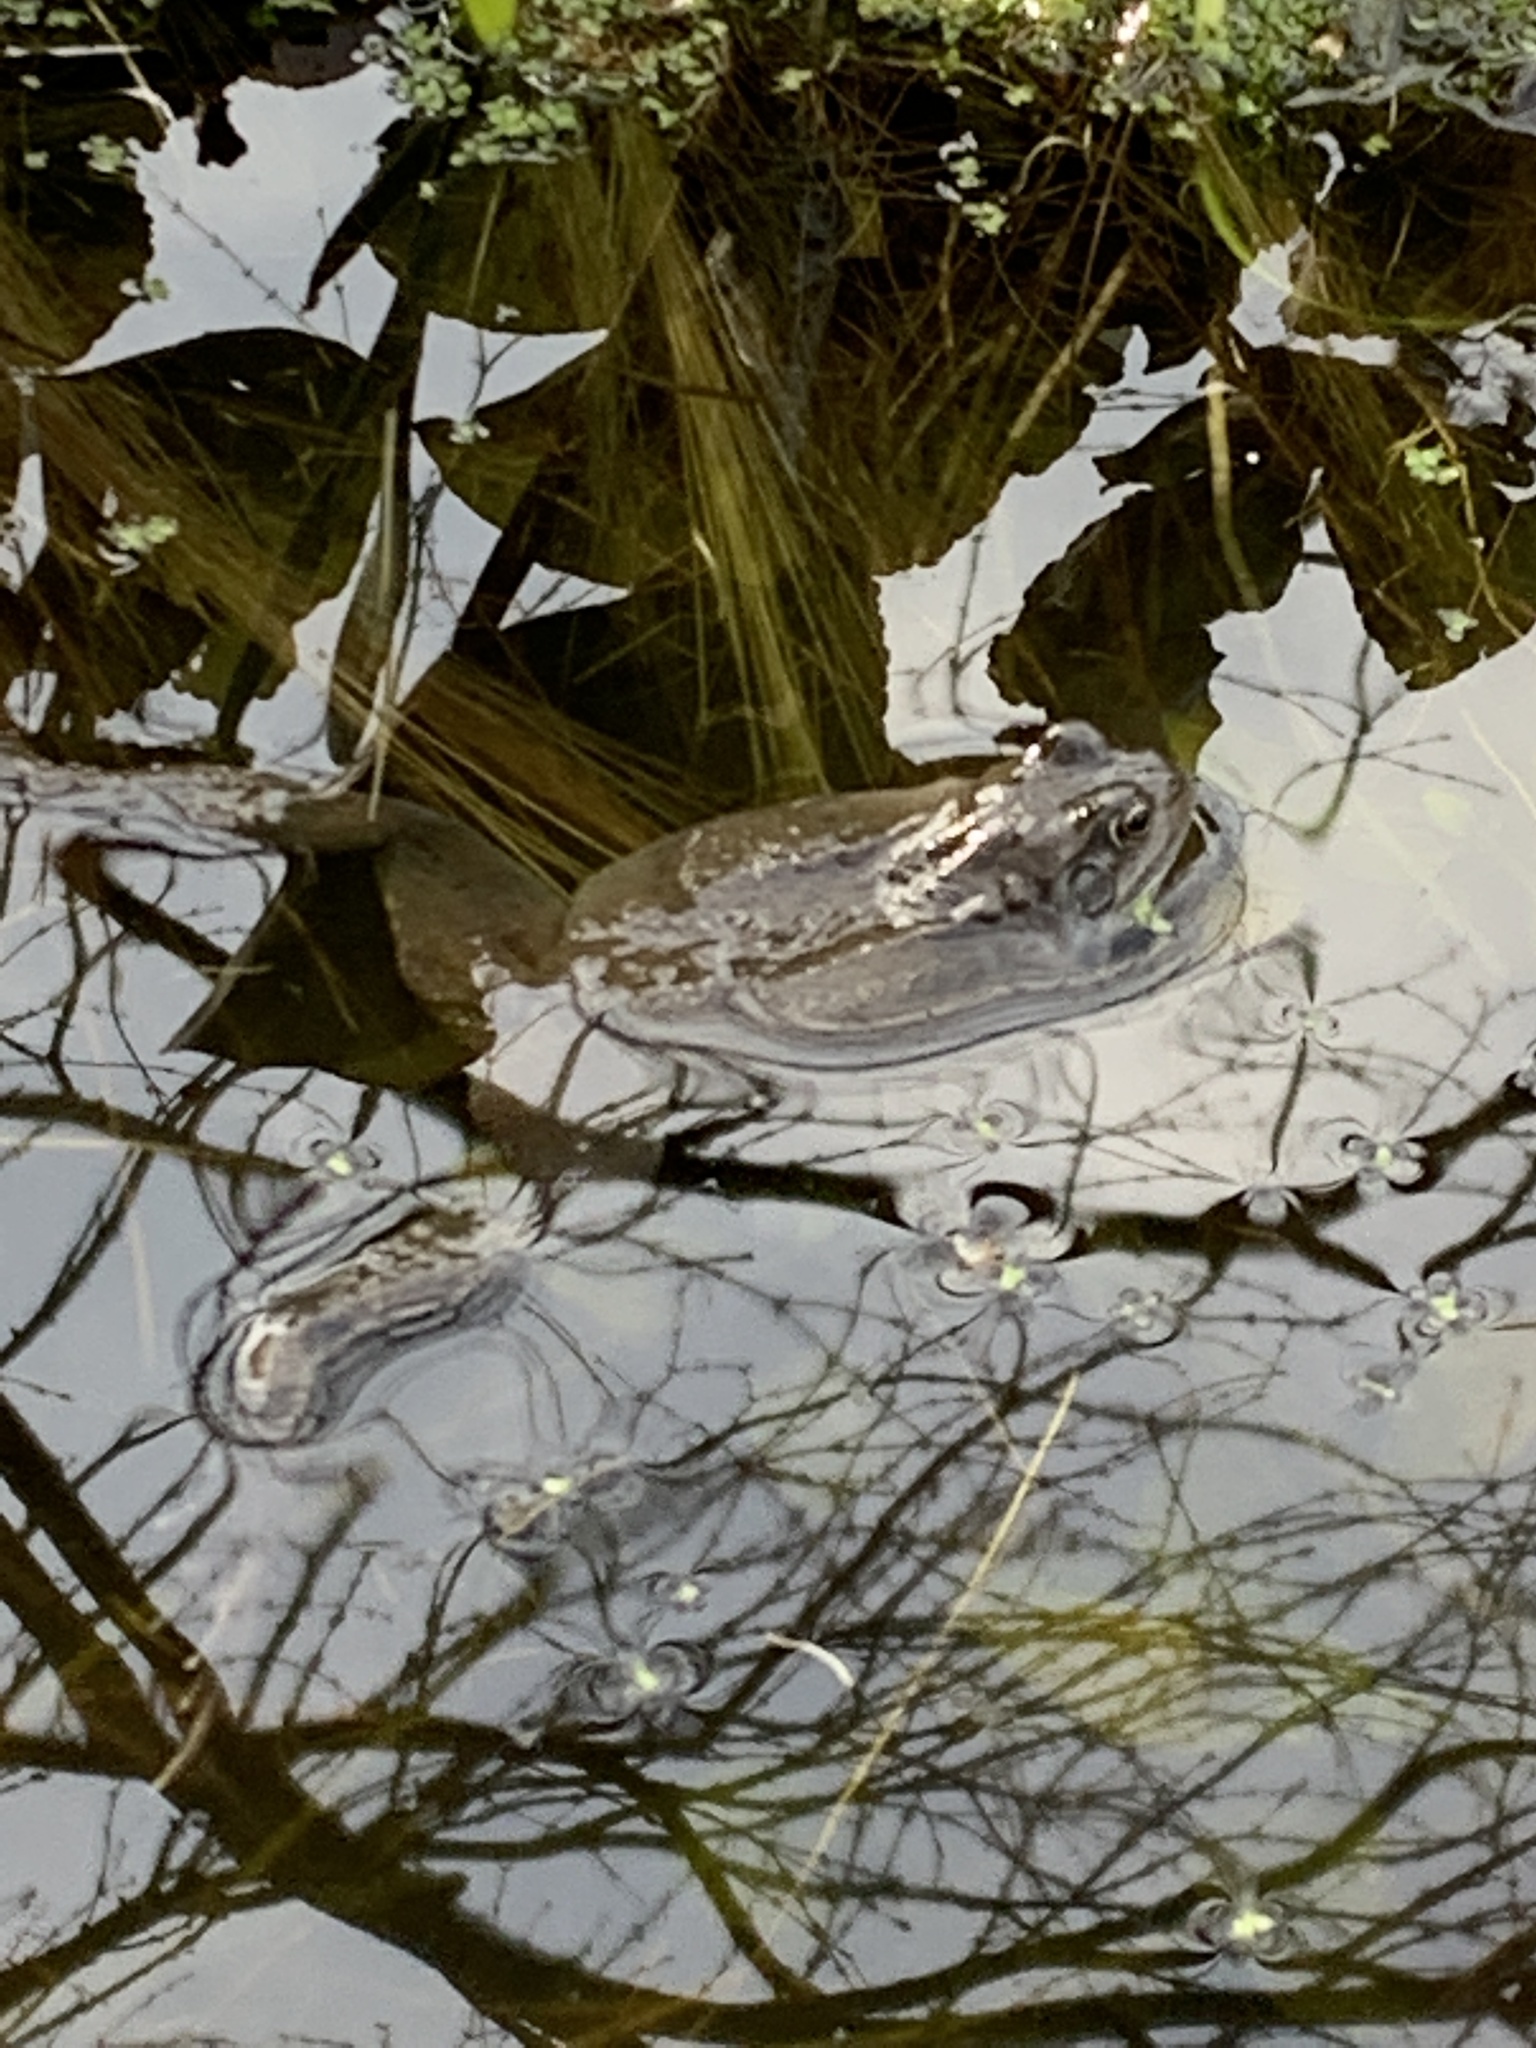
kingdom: Animalia
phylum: Chordata
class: Amphibia
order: Anura
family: Ranidae
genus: Rana
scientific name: Rana temporaria
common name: Common frog
